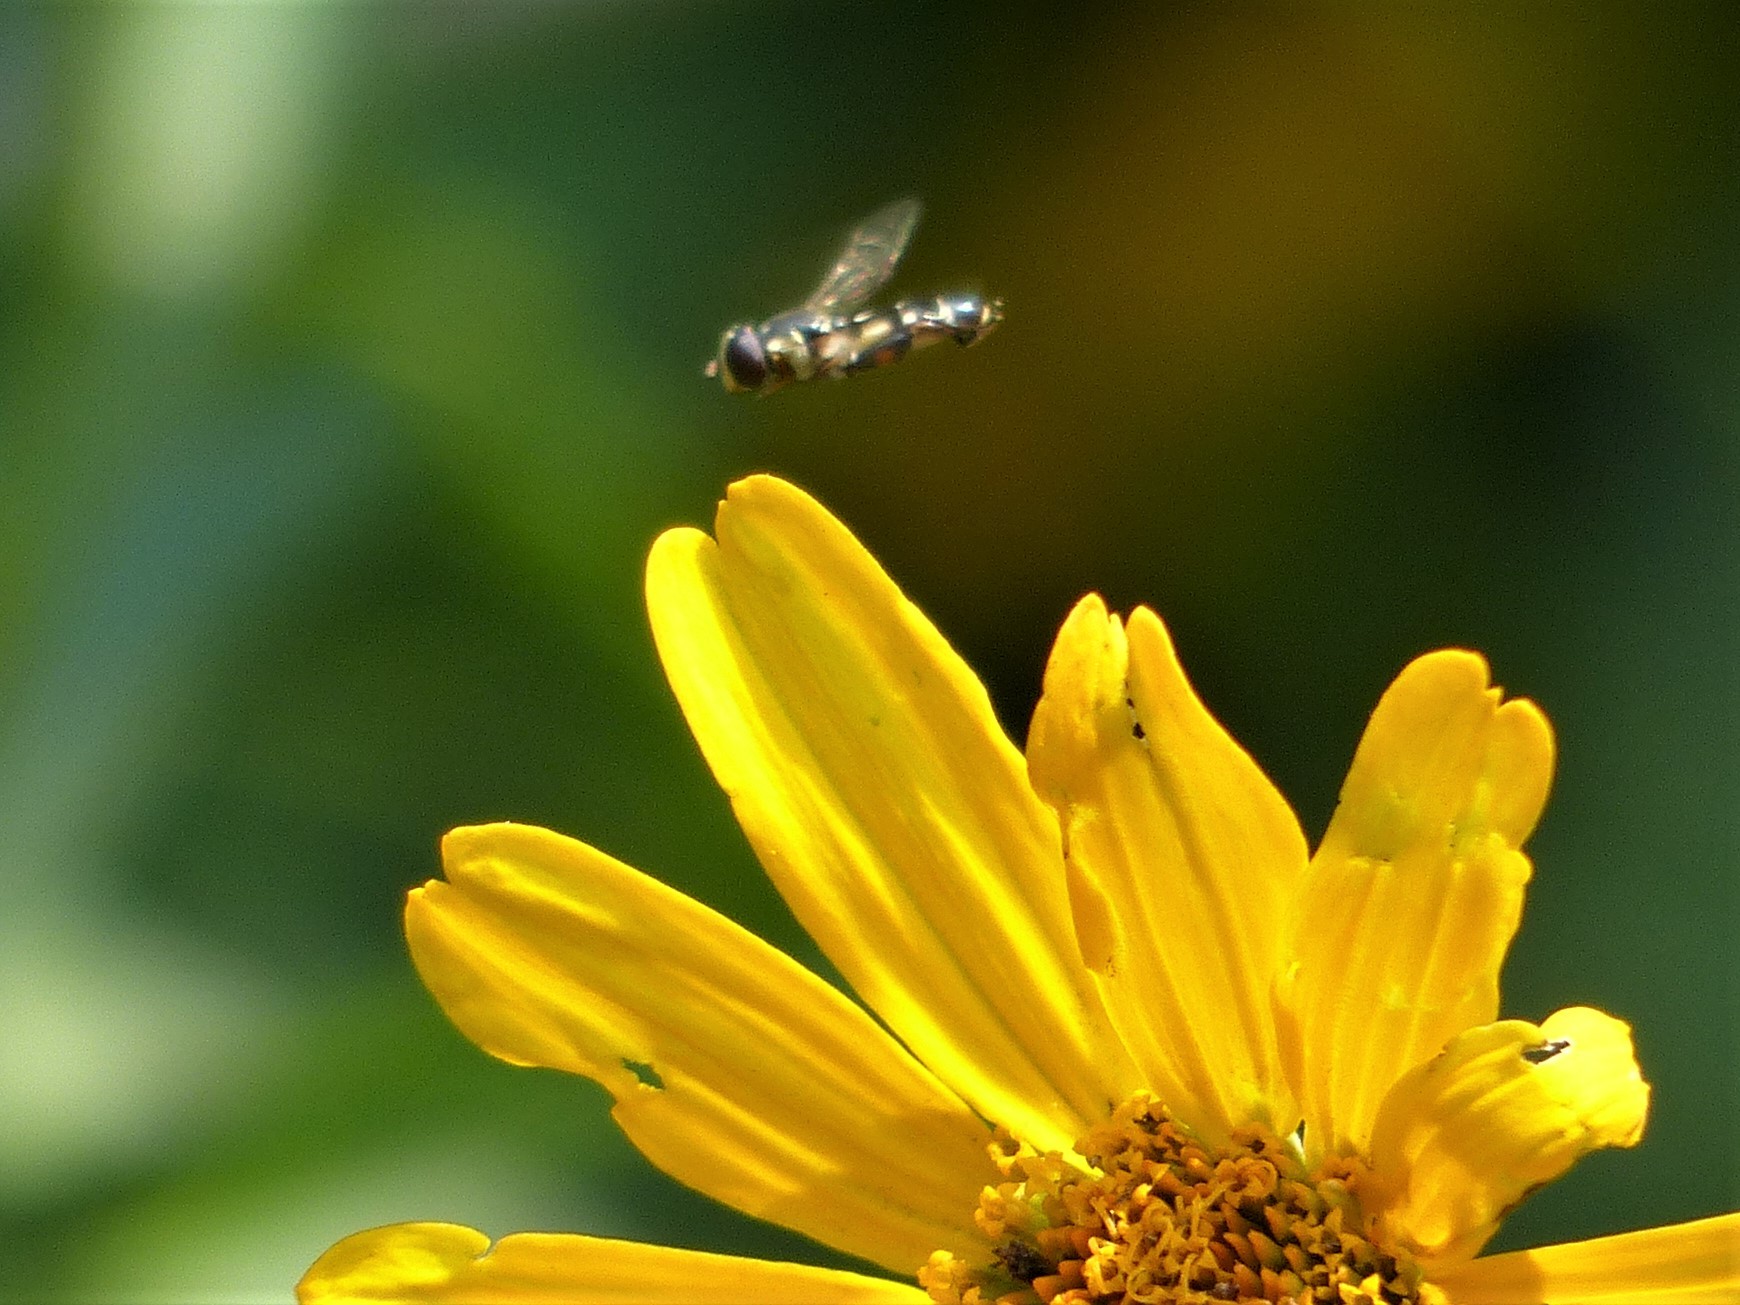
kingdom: Animalia
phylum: Arthropoda
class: Insecta
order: Diptera
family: Syrphidae
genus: Syritta
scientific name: Syritta pipiens
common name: Hover fly
